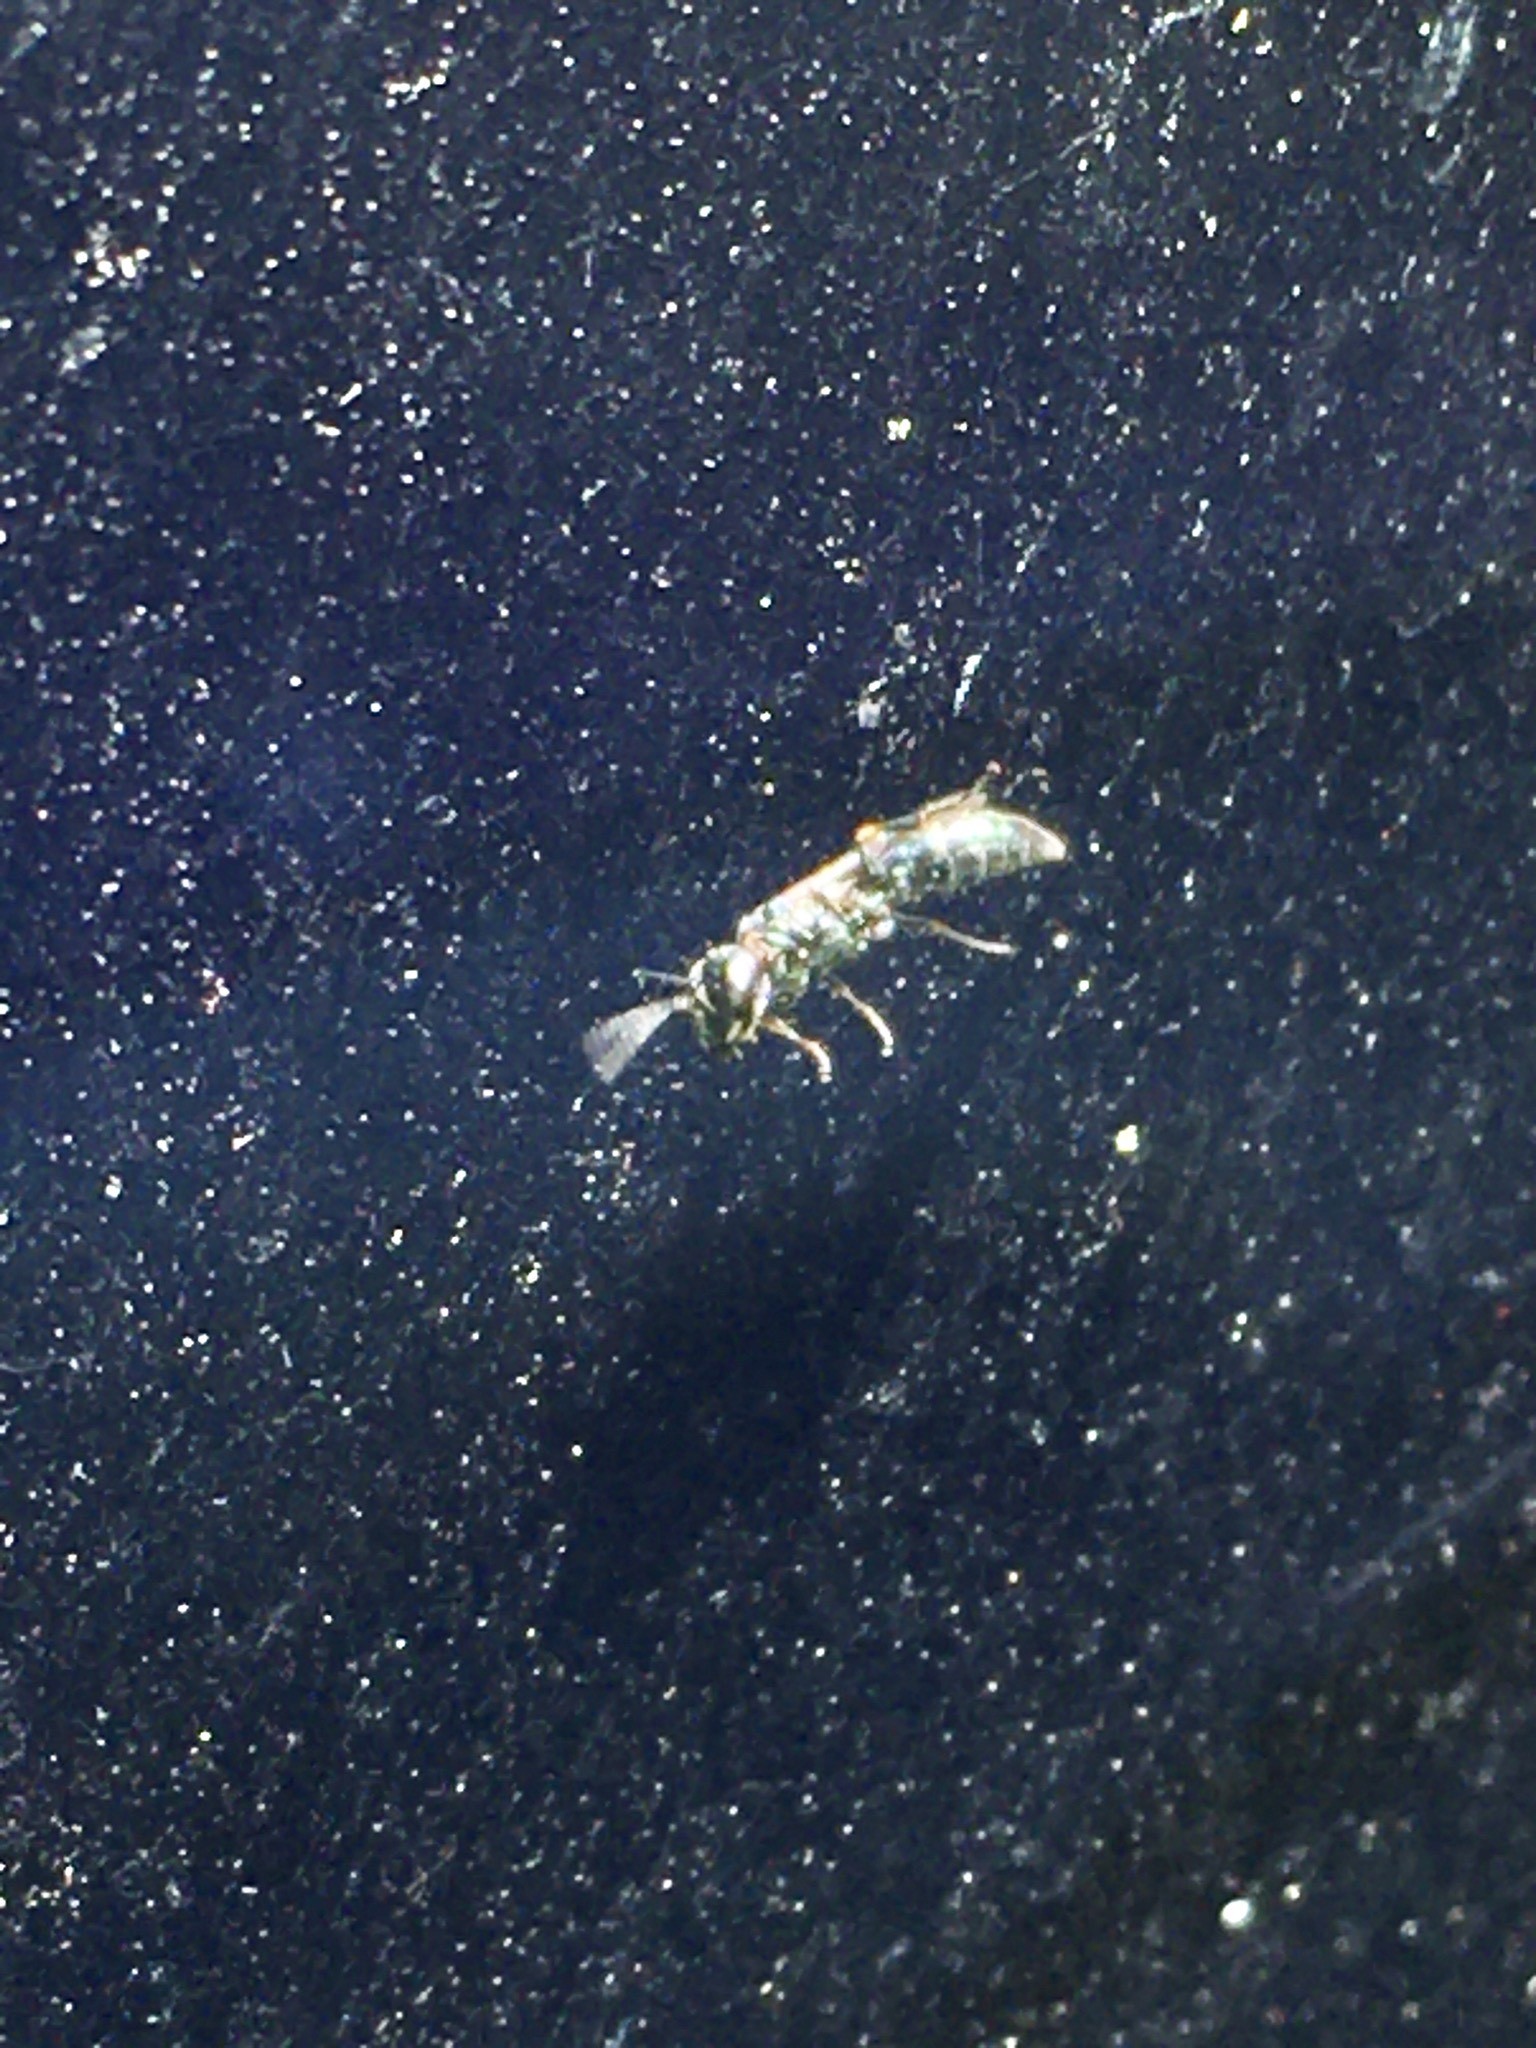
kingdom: Animalia
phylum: Arthropoda
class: Insecta
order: Hymenoptera
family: Tiphiidae
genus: Tiphia
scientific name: Tiphia
